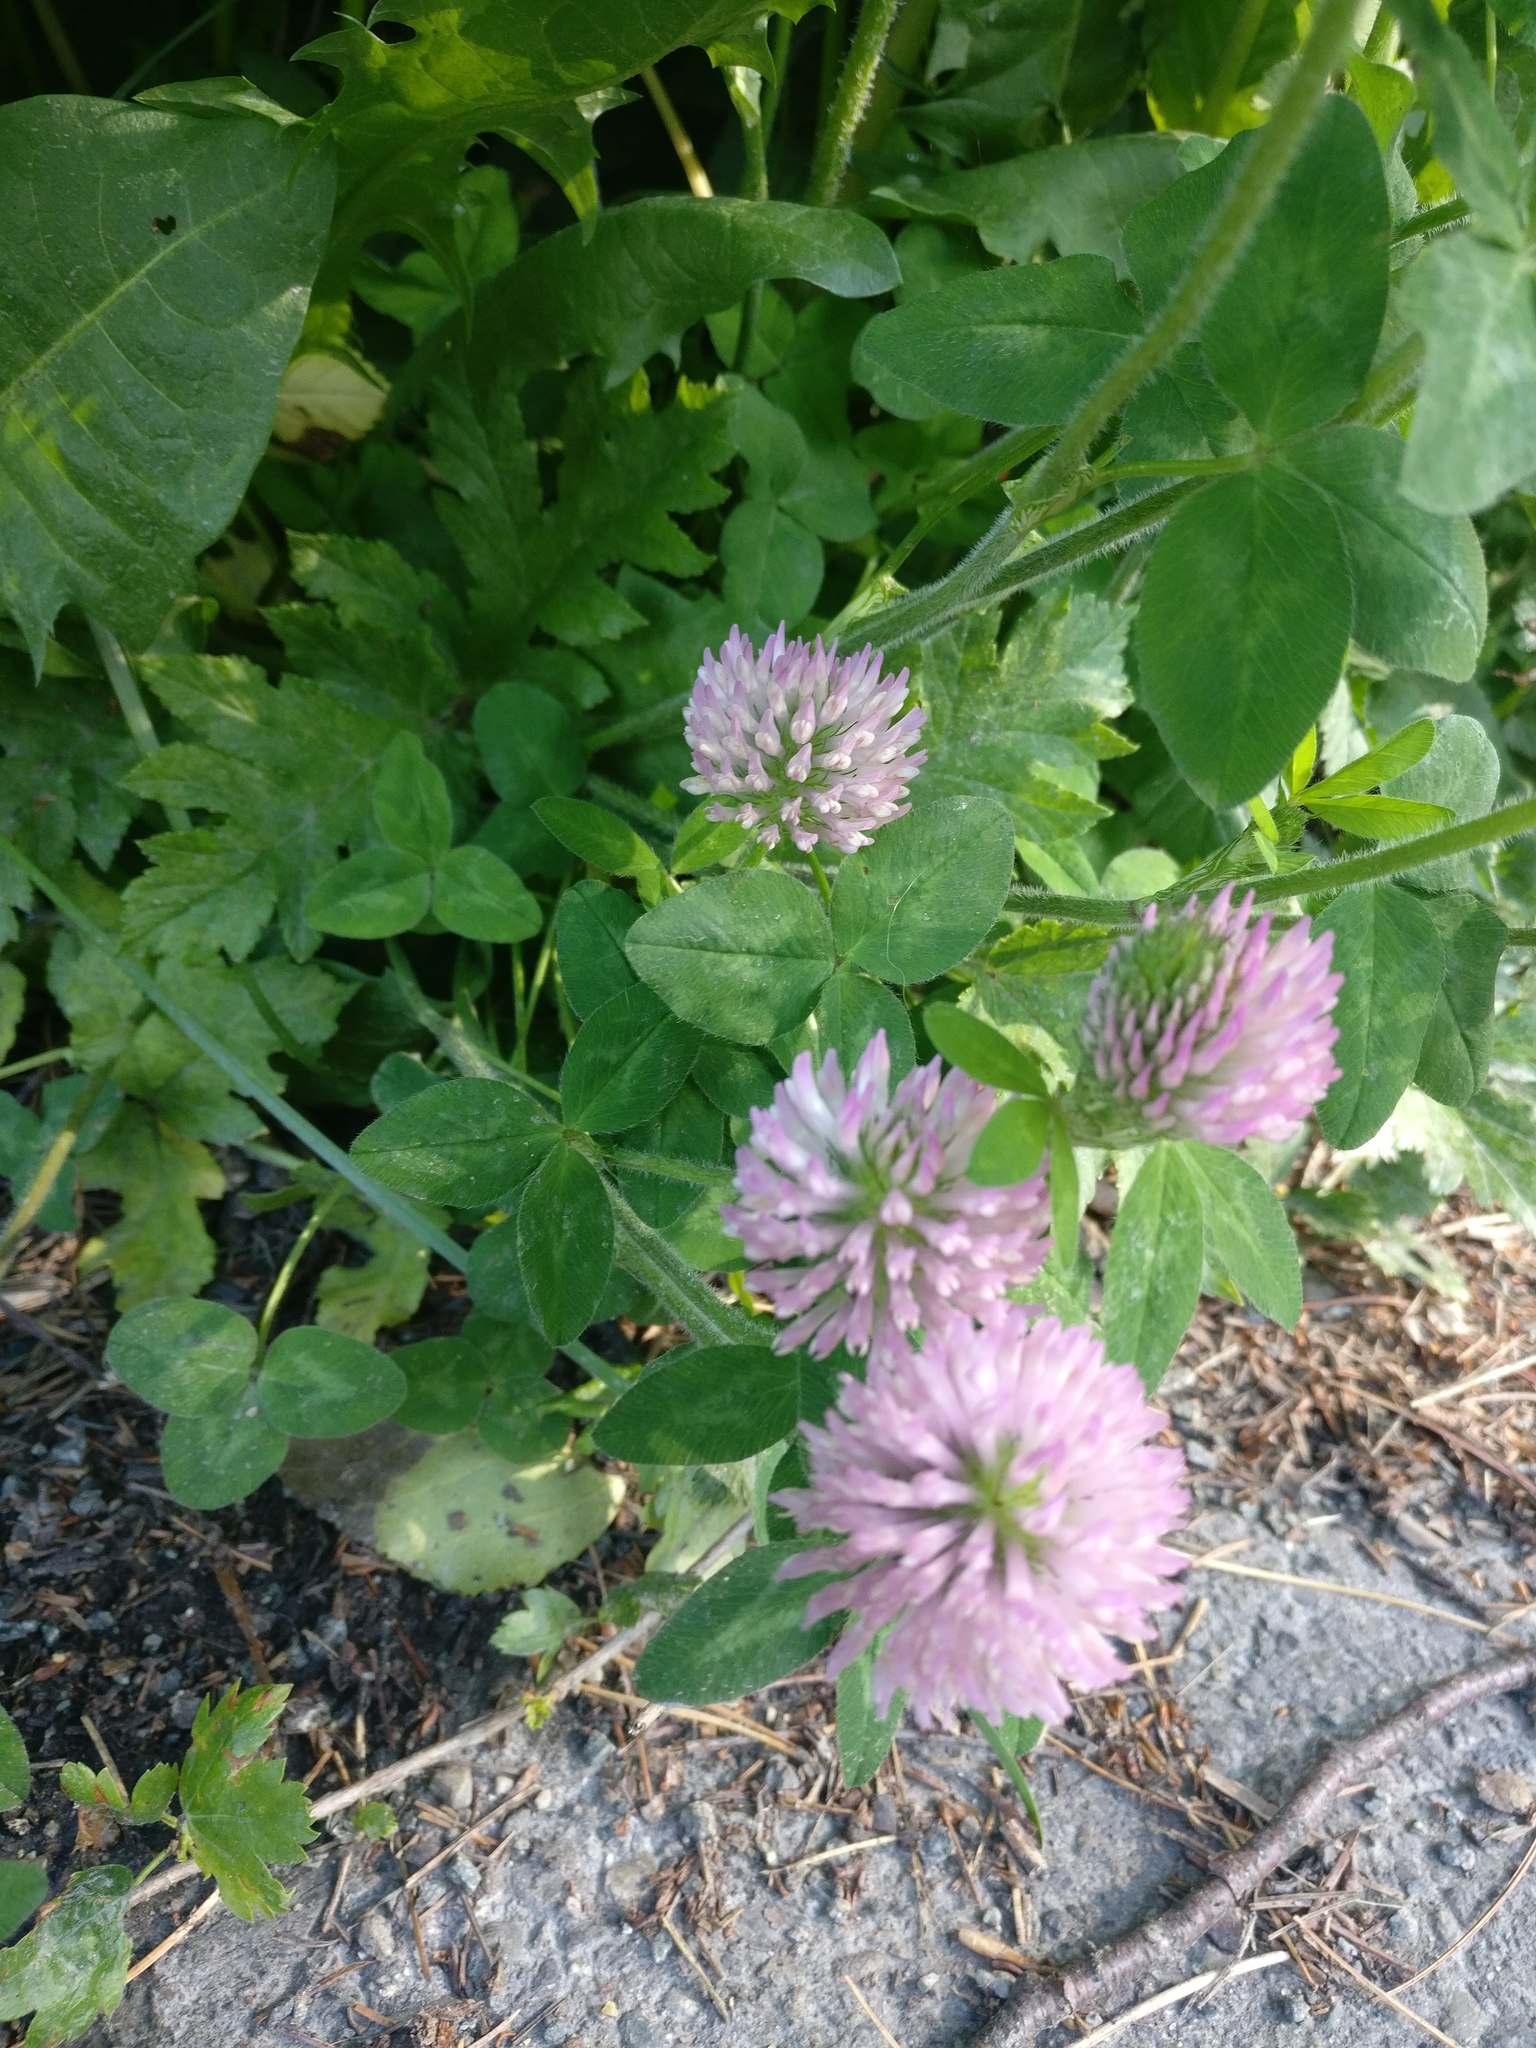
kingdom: Plantae
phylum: Tracheophyta
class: Magnoliopsida
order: Fabales
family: Fabaceae
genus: Trifolium
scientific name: Trifolium pratense
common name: Red clover
